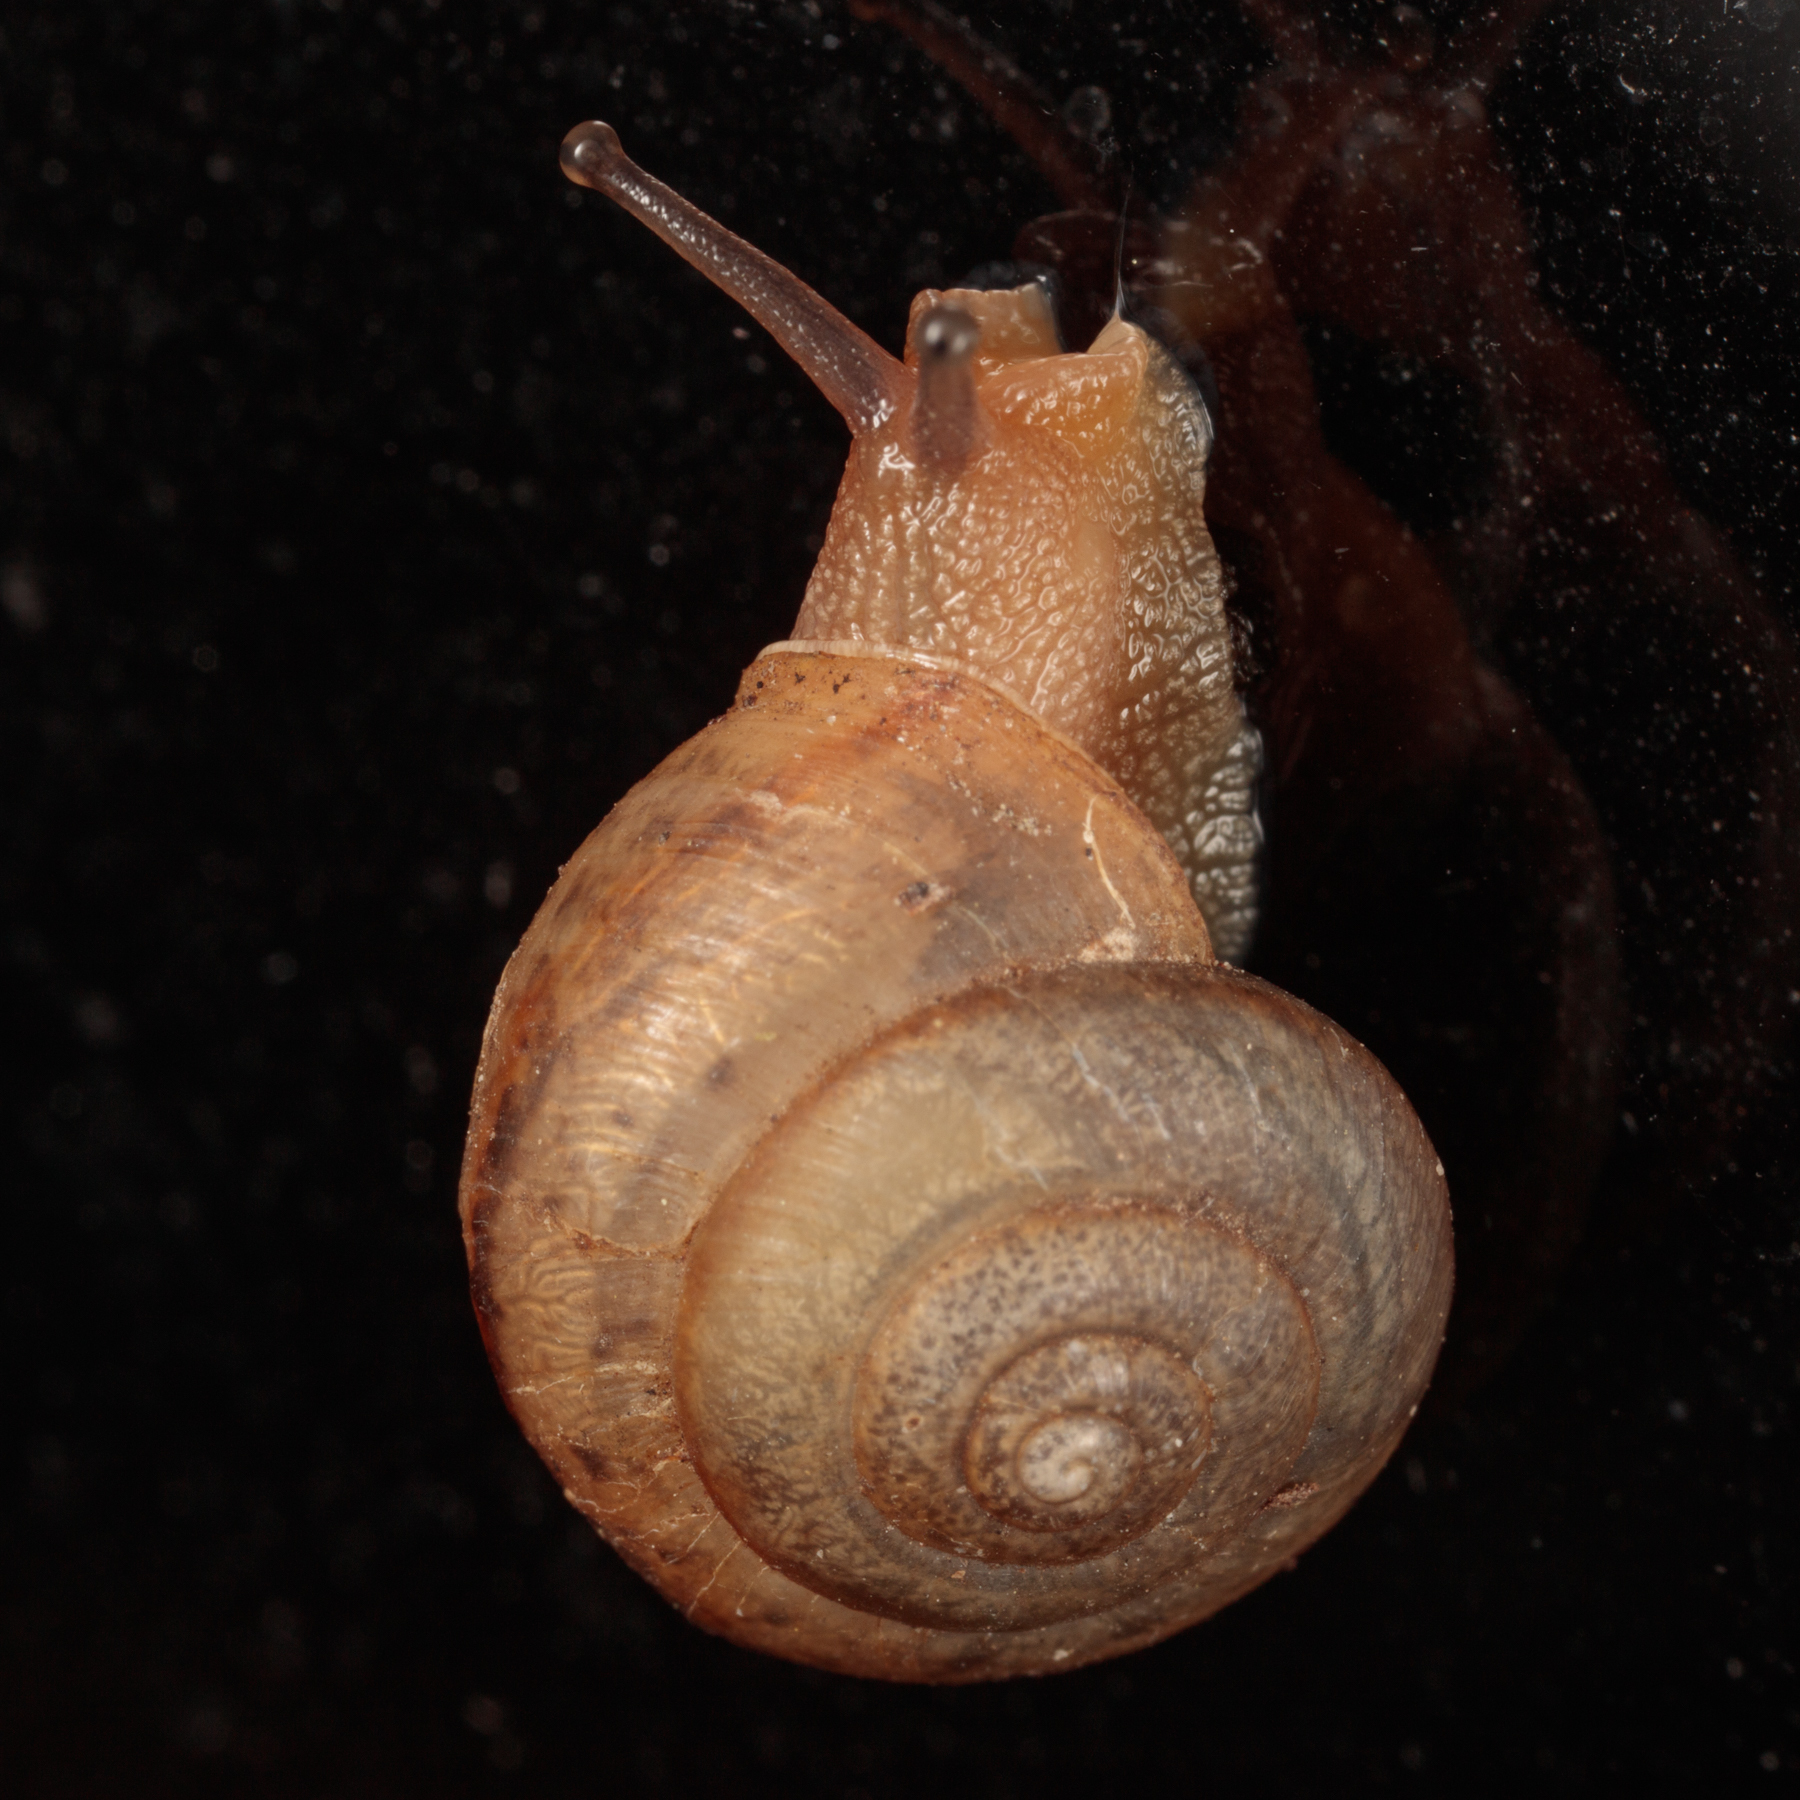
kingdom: Animalia
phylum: Mollusca
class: Gastropoda
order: Stylommatophora
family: Camaenidae
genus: Bradybaena
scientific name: Bradybaena similaris
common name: Asian trampsnail
